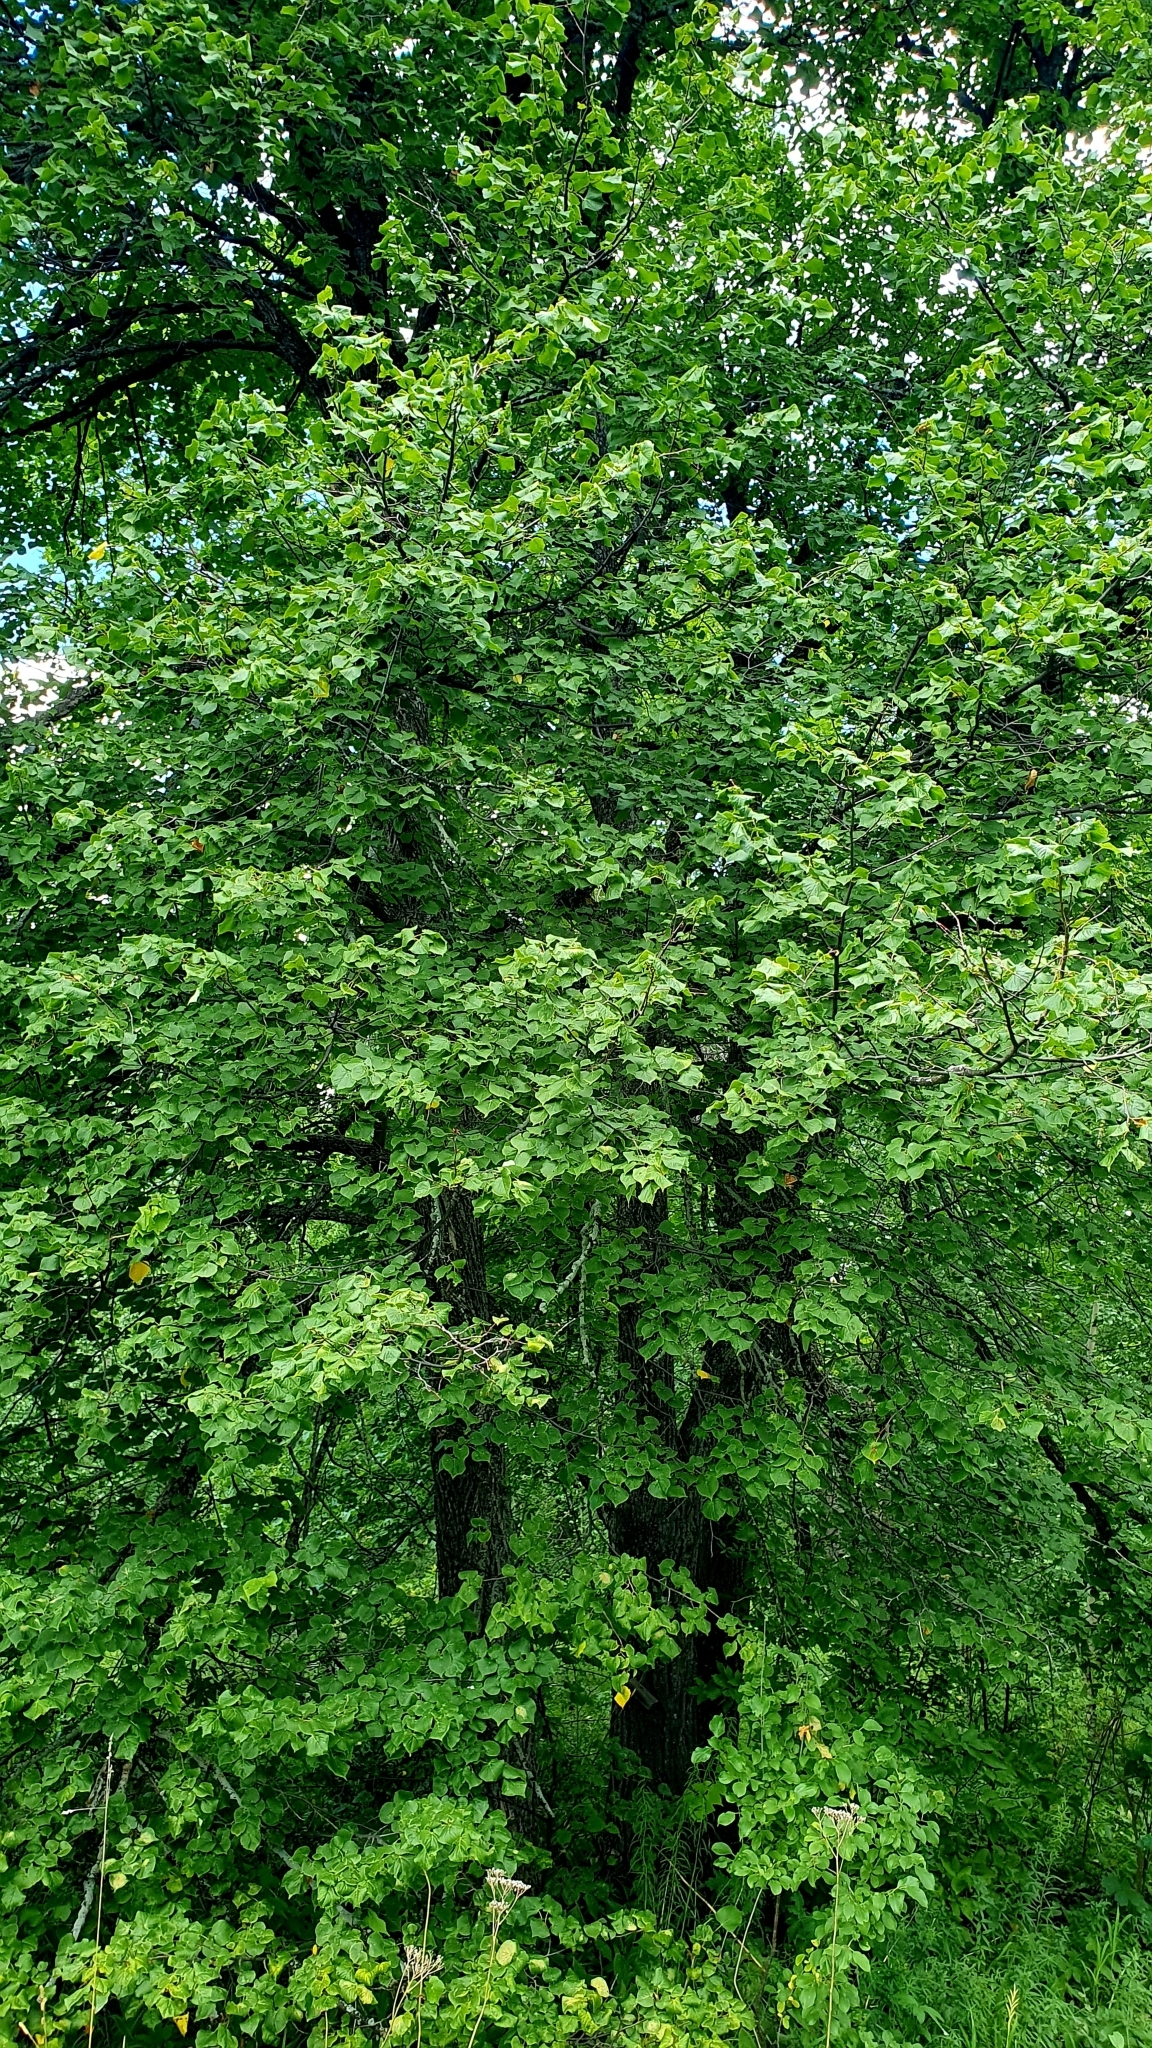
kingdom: Plantae
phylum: Tracheophyta
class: Magnoliopsida
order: Malvales
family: Malvaceae
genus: Tilia
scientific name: Tilia cordata
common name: Small-leaved lime
